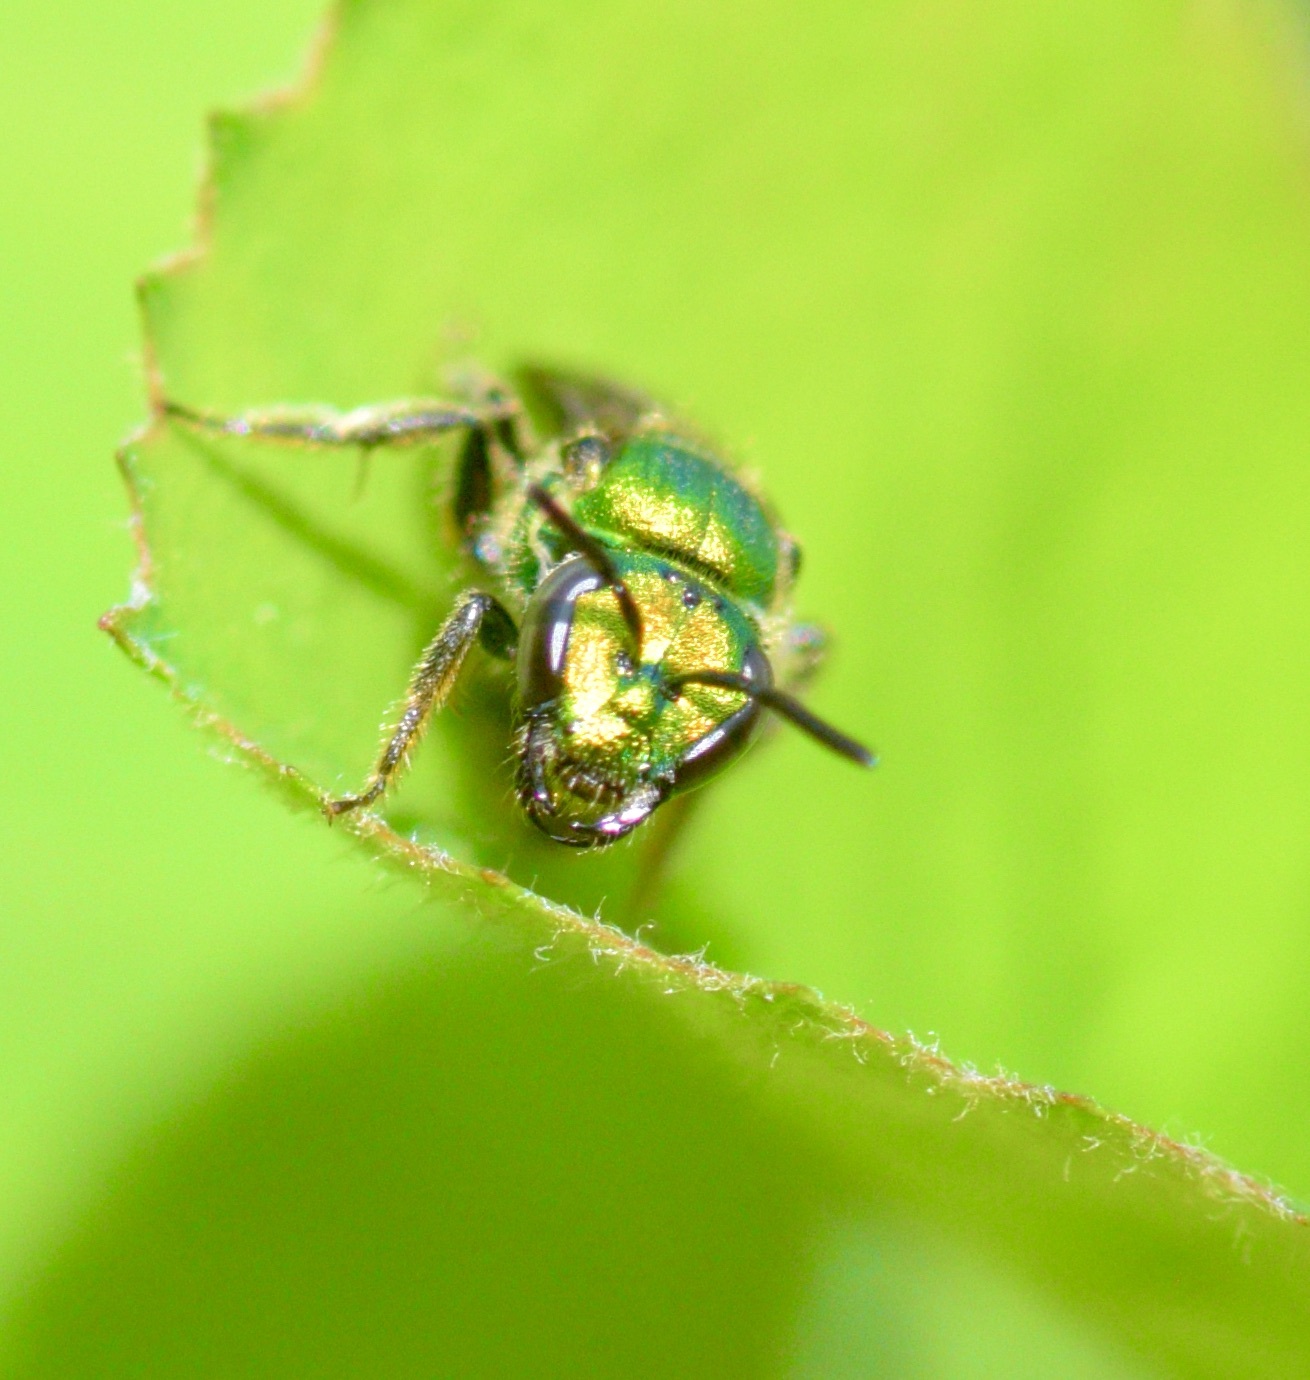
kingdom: Animalia
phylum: Arthropoda
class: Insecta
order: Hymenoptera
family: Halictidae
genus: Augochlora
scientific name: Augochlora pura
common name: Pure green sweat bee
